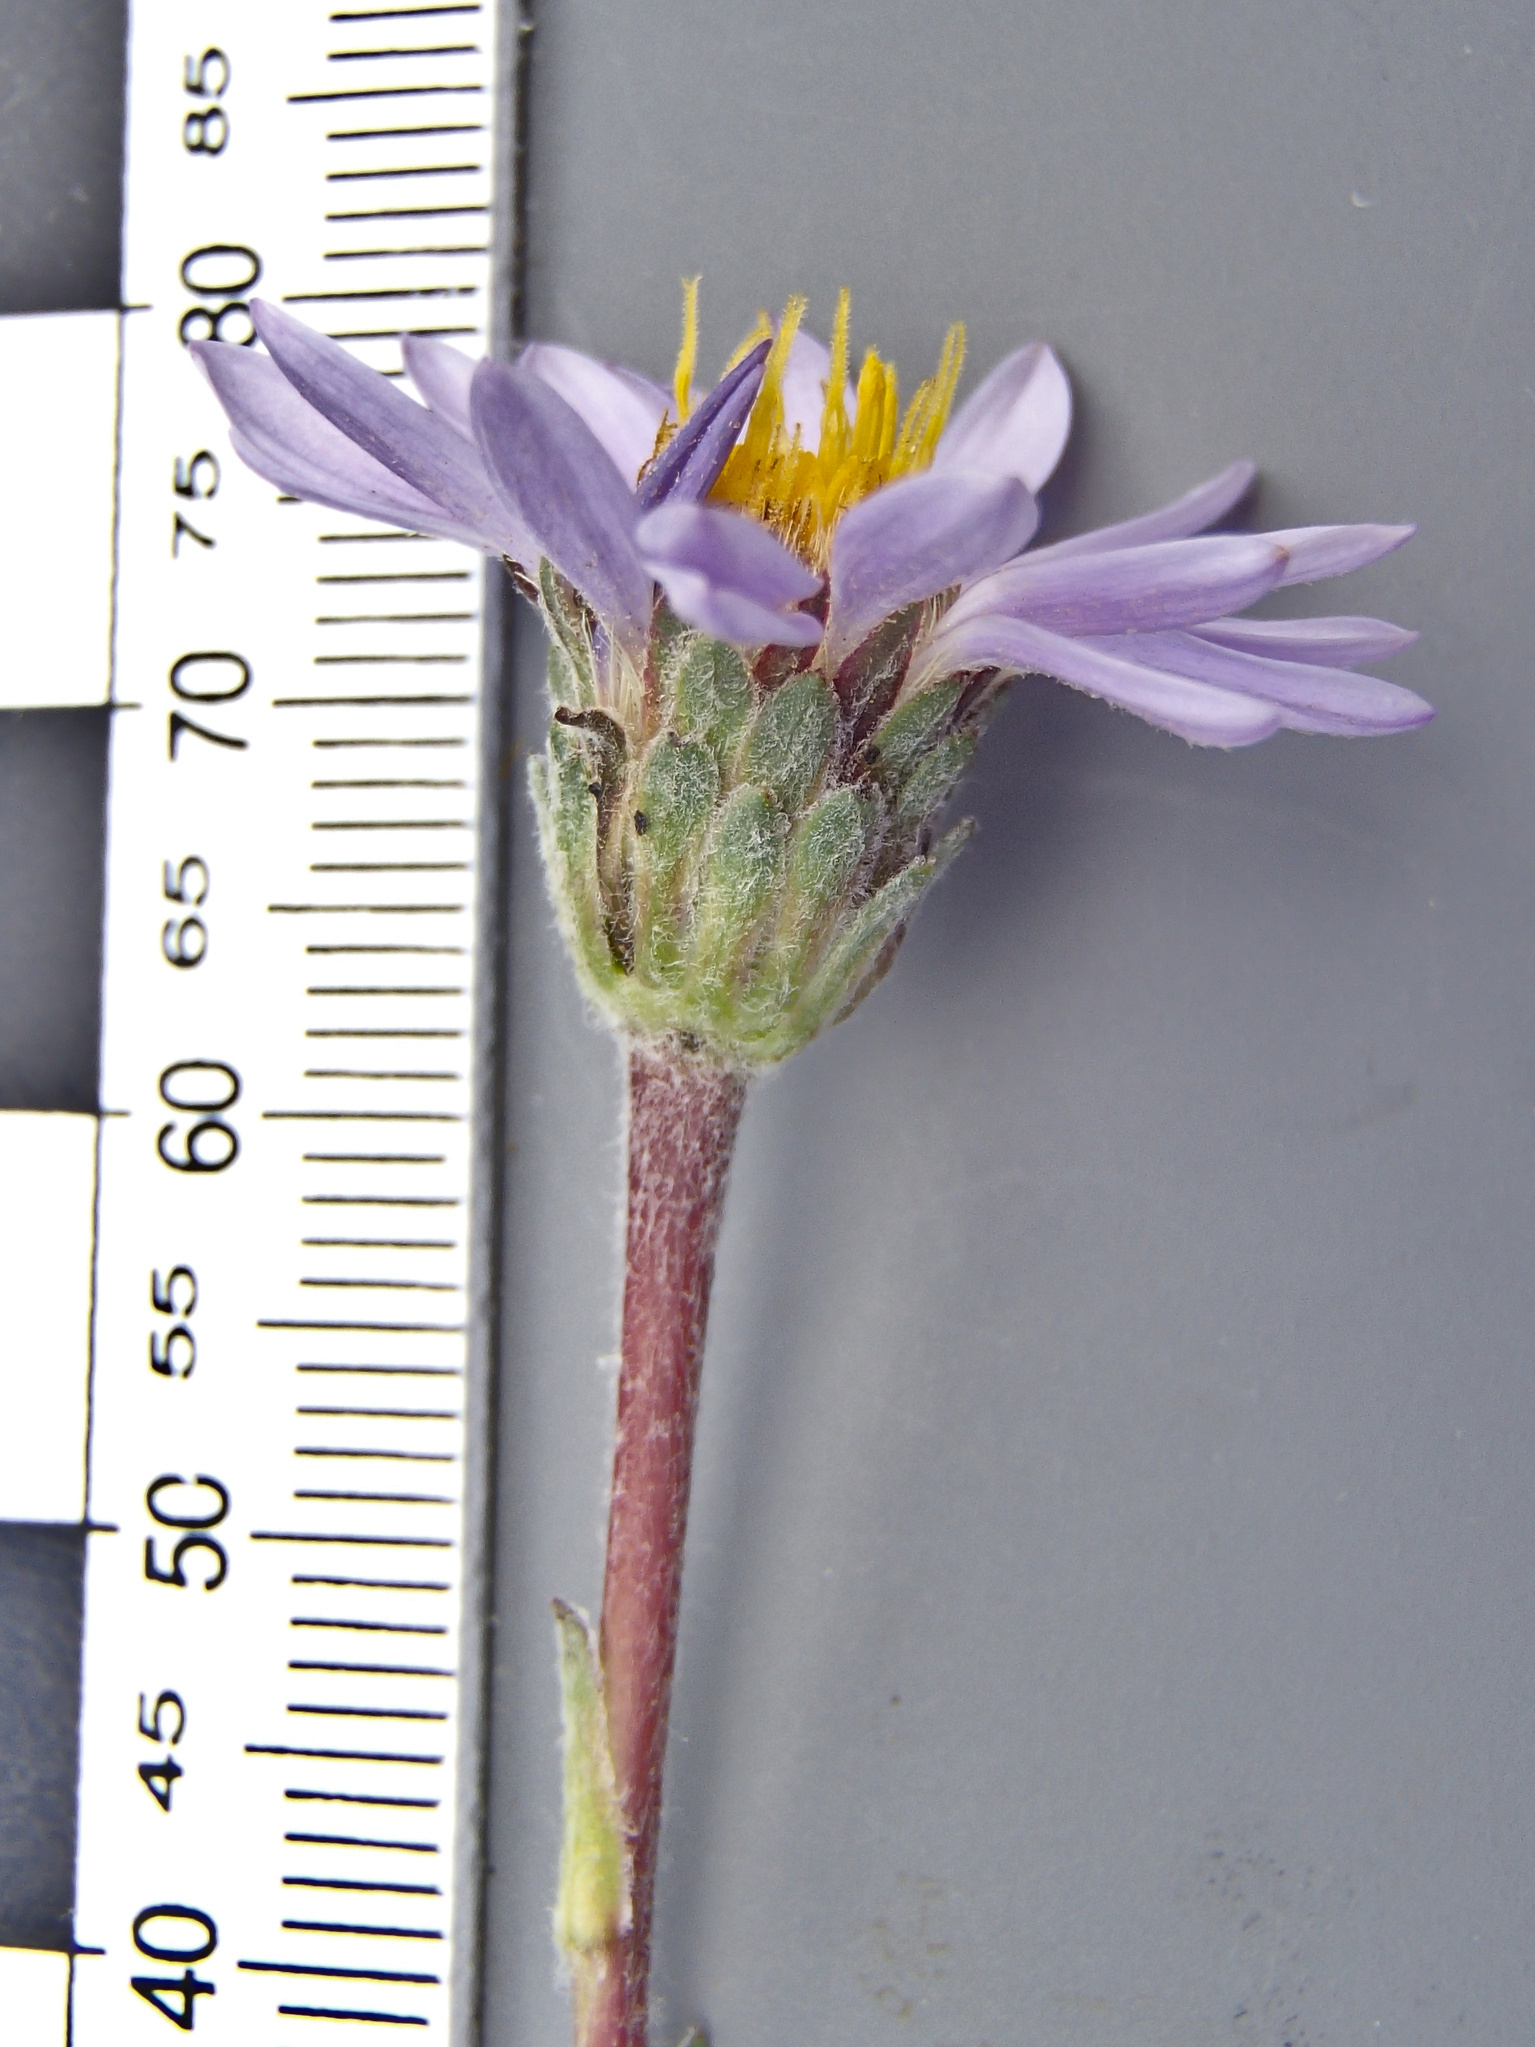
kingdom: Plantae
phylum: Tracheophyta
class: Magnoliopsida
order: Asterales
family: Asteraceae
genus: Oreostemma
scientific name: Oreostemma alpigenum
